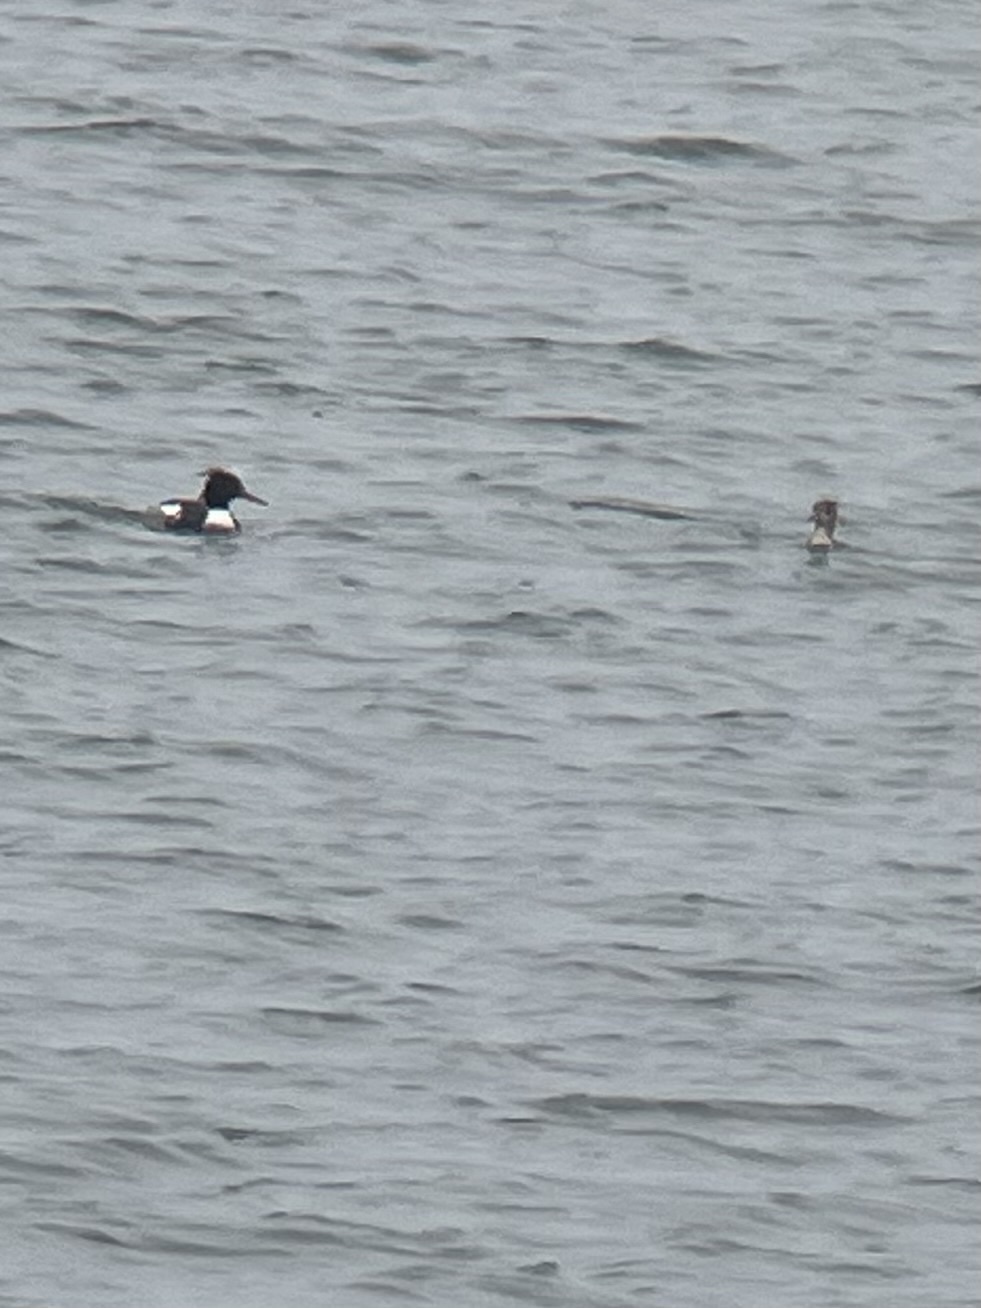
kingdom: Animalia
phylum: Chordata
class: Aves
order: Anseriformes
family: Anatidae
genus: Mergus
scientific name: Mergus serrator
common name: Red-breasted merganser
